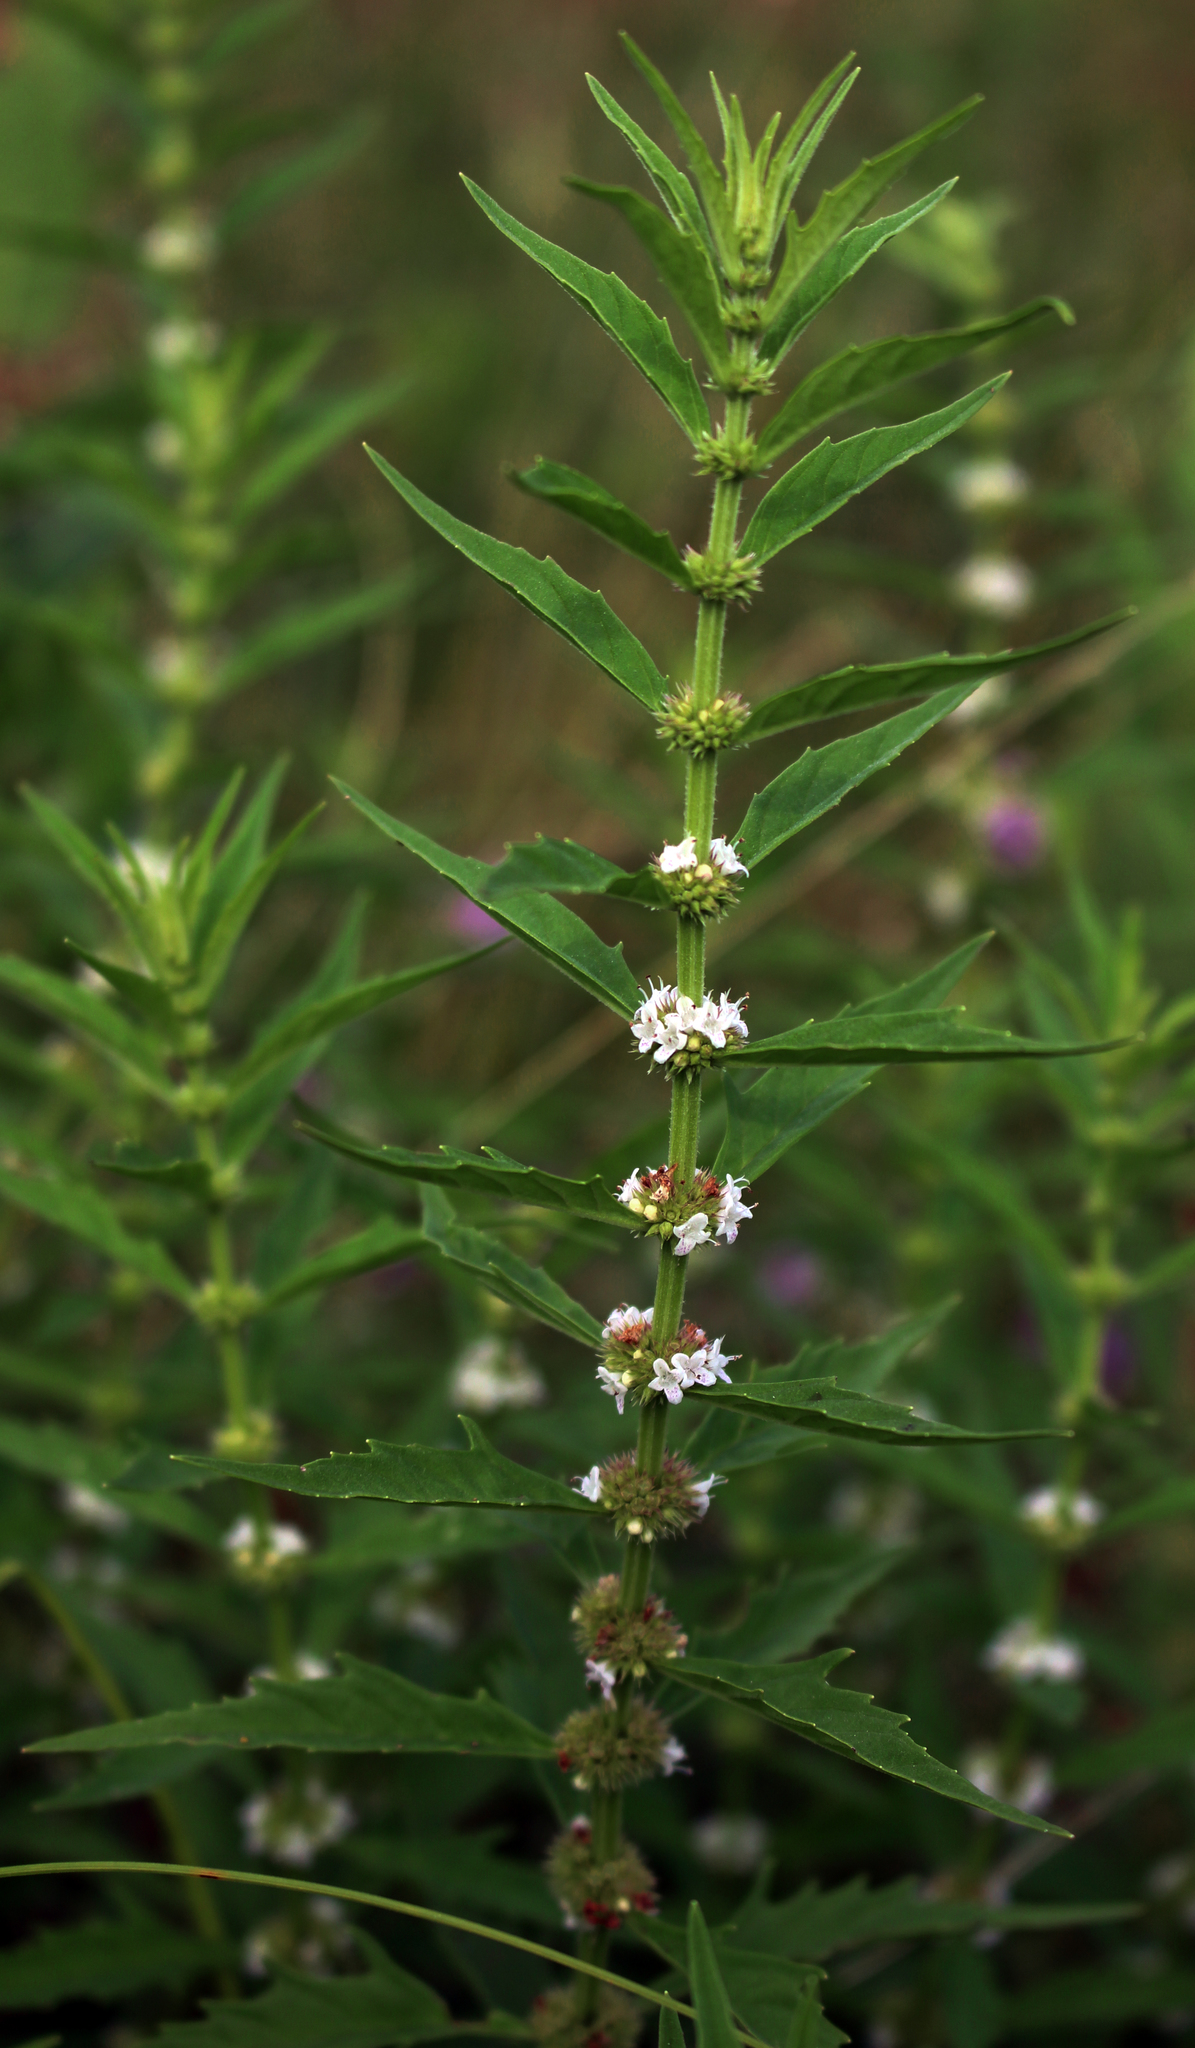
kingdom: Plantae
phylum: Tracheophyta
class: Magnoliopsida
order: Lamiales
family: Lamiaceae
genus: Lycopus
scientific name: Lycopus americanus
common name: American bugleweed
